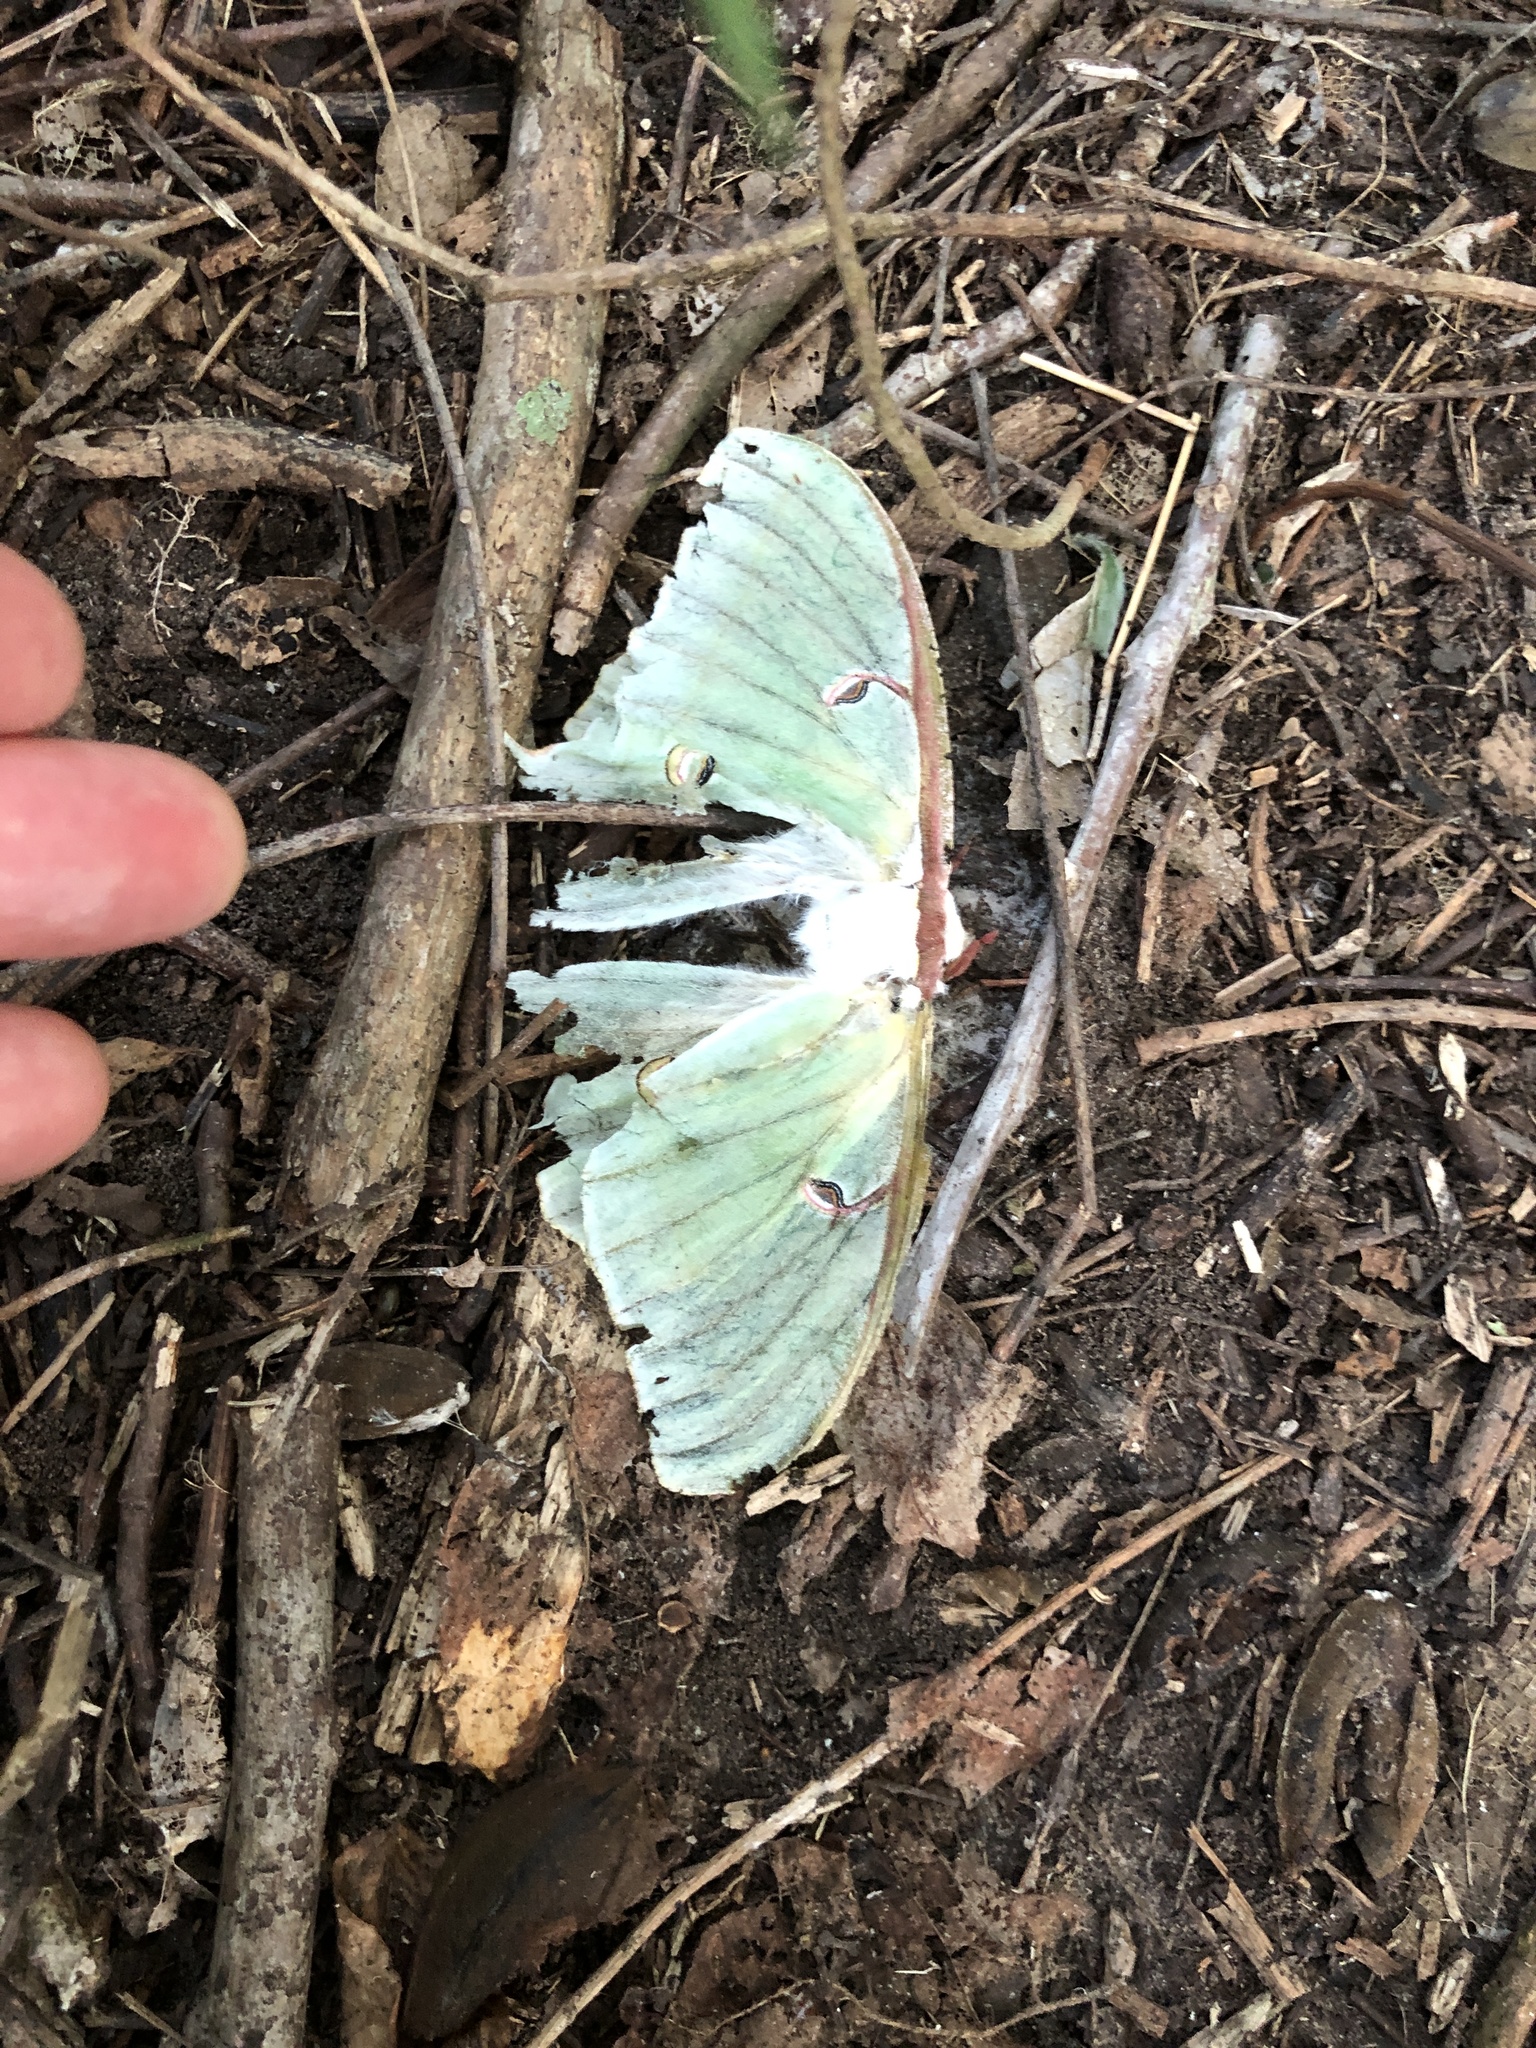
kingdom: Animalia
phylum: Arthropoda
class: Insecta
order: Lepidoptera
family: Saturniidae
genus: Actias
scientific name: Actias luna
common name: Luna moth
